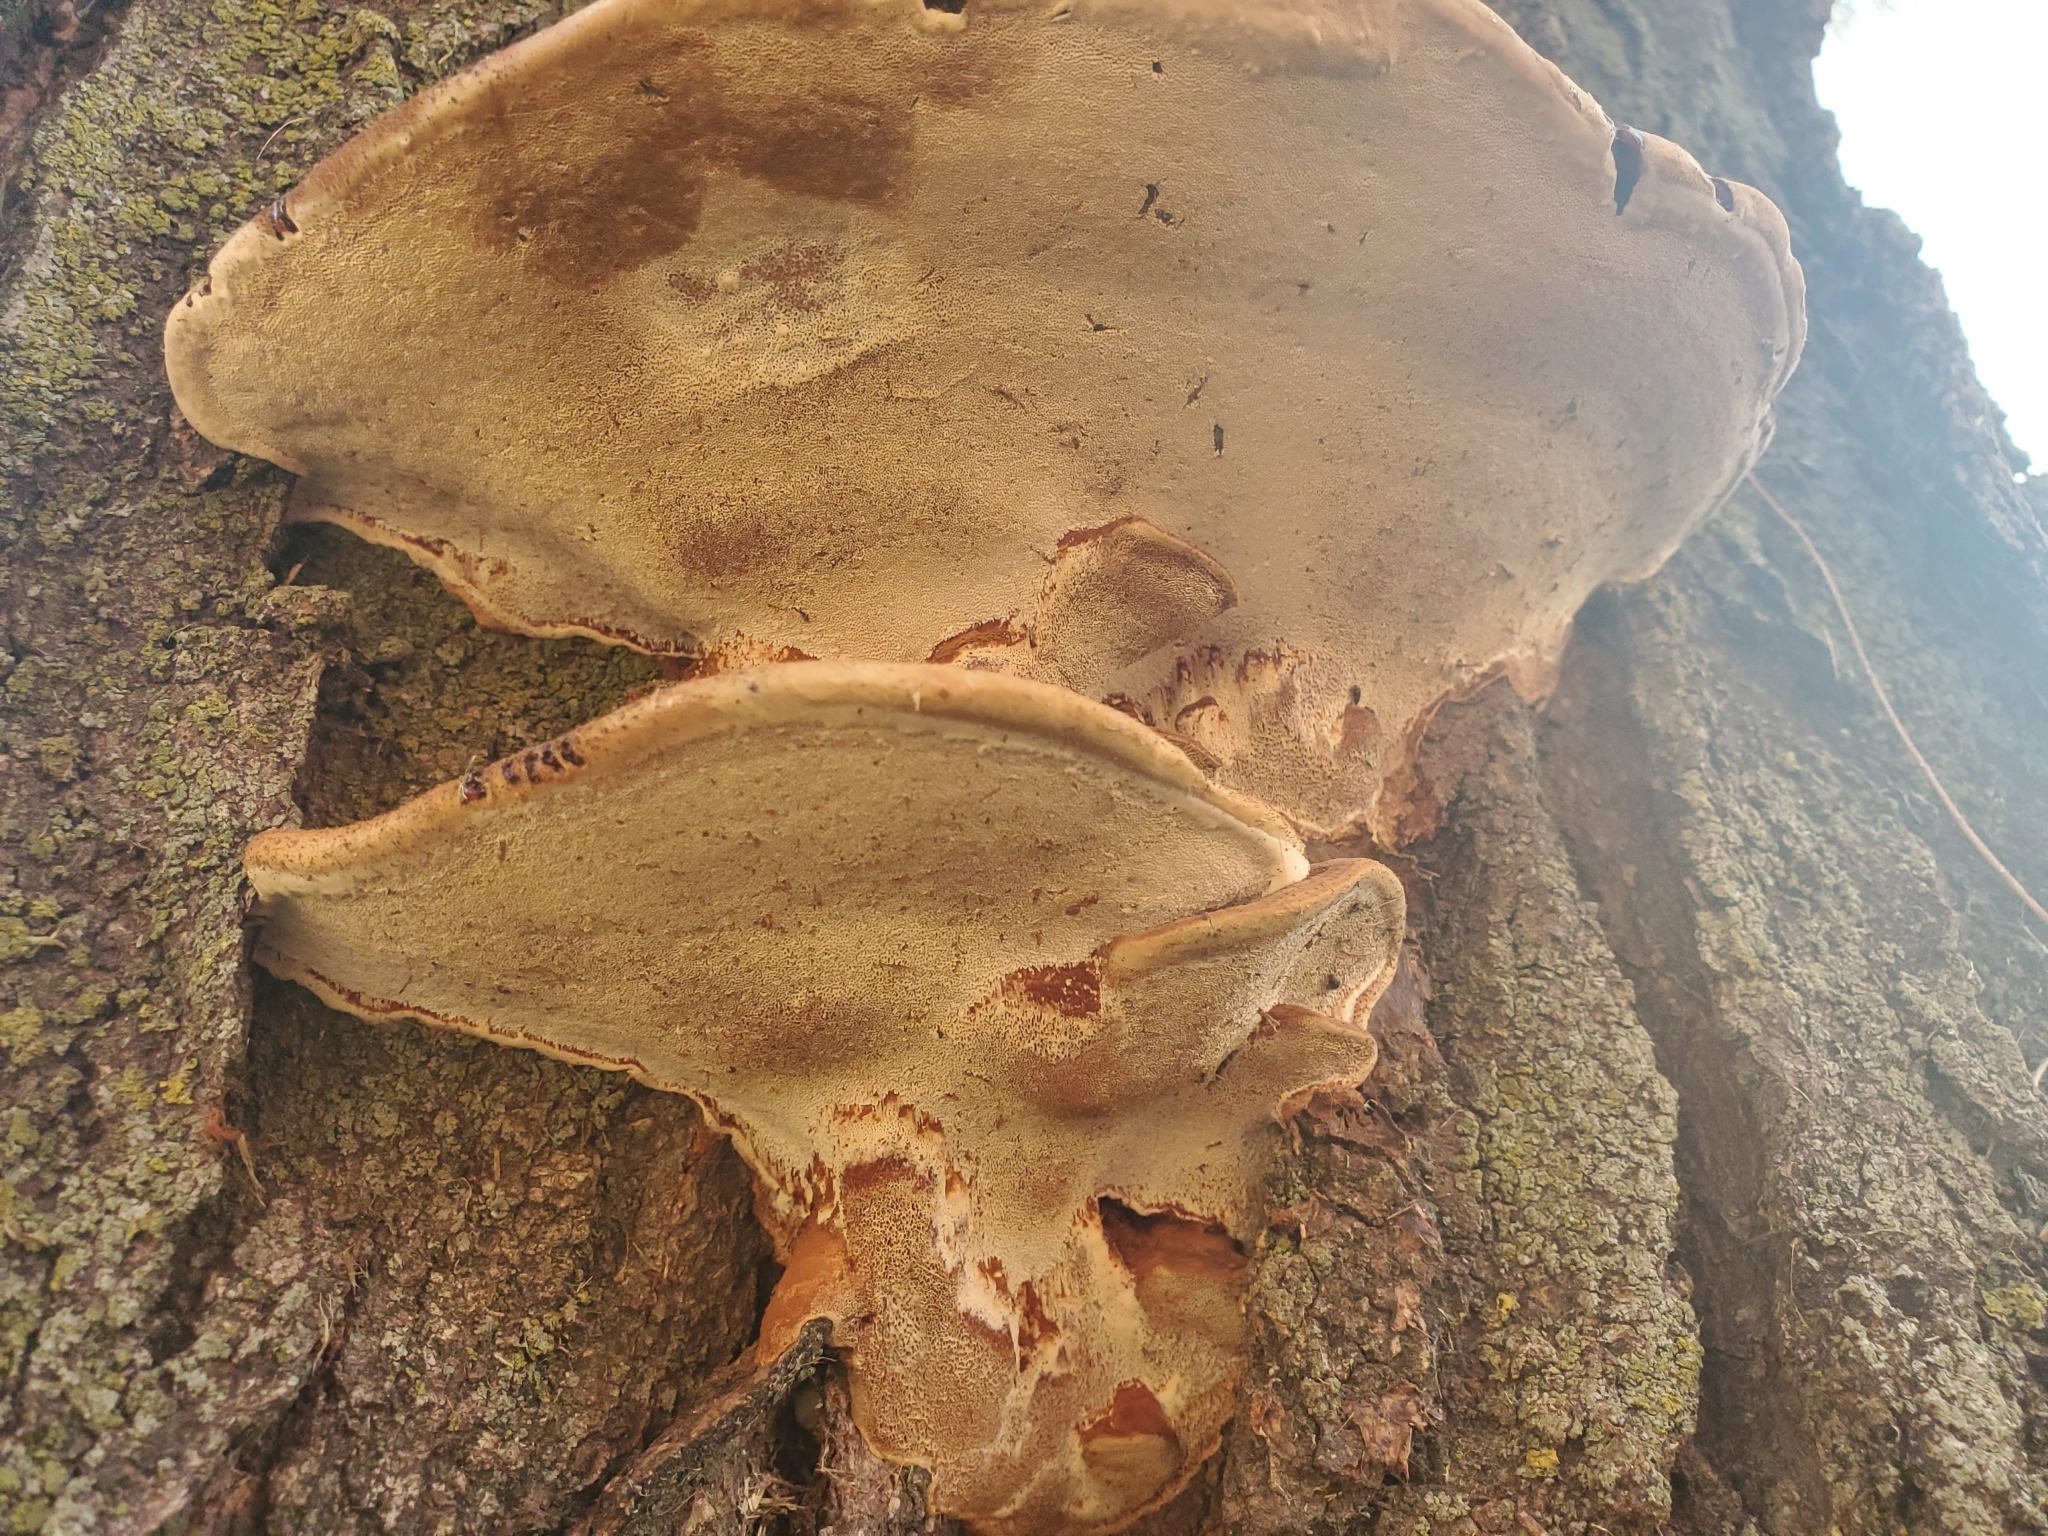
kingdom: Fungi
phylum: Basidiomycota
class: Agaricomycetes
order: Polyporales
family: Polyporaceae
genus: Ganoderma
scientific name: Ganoderma resinaceum
